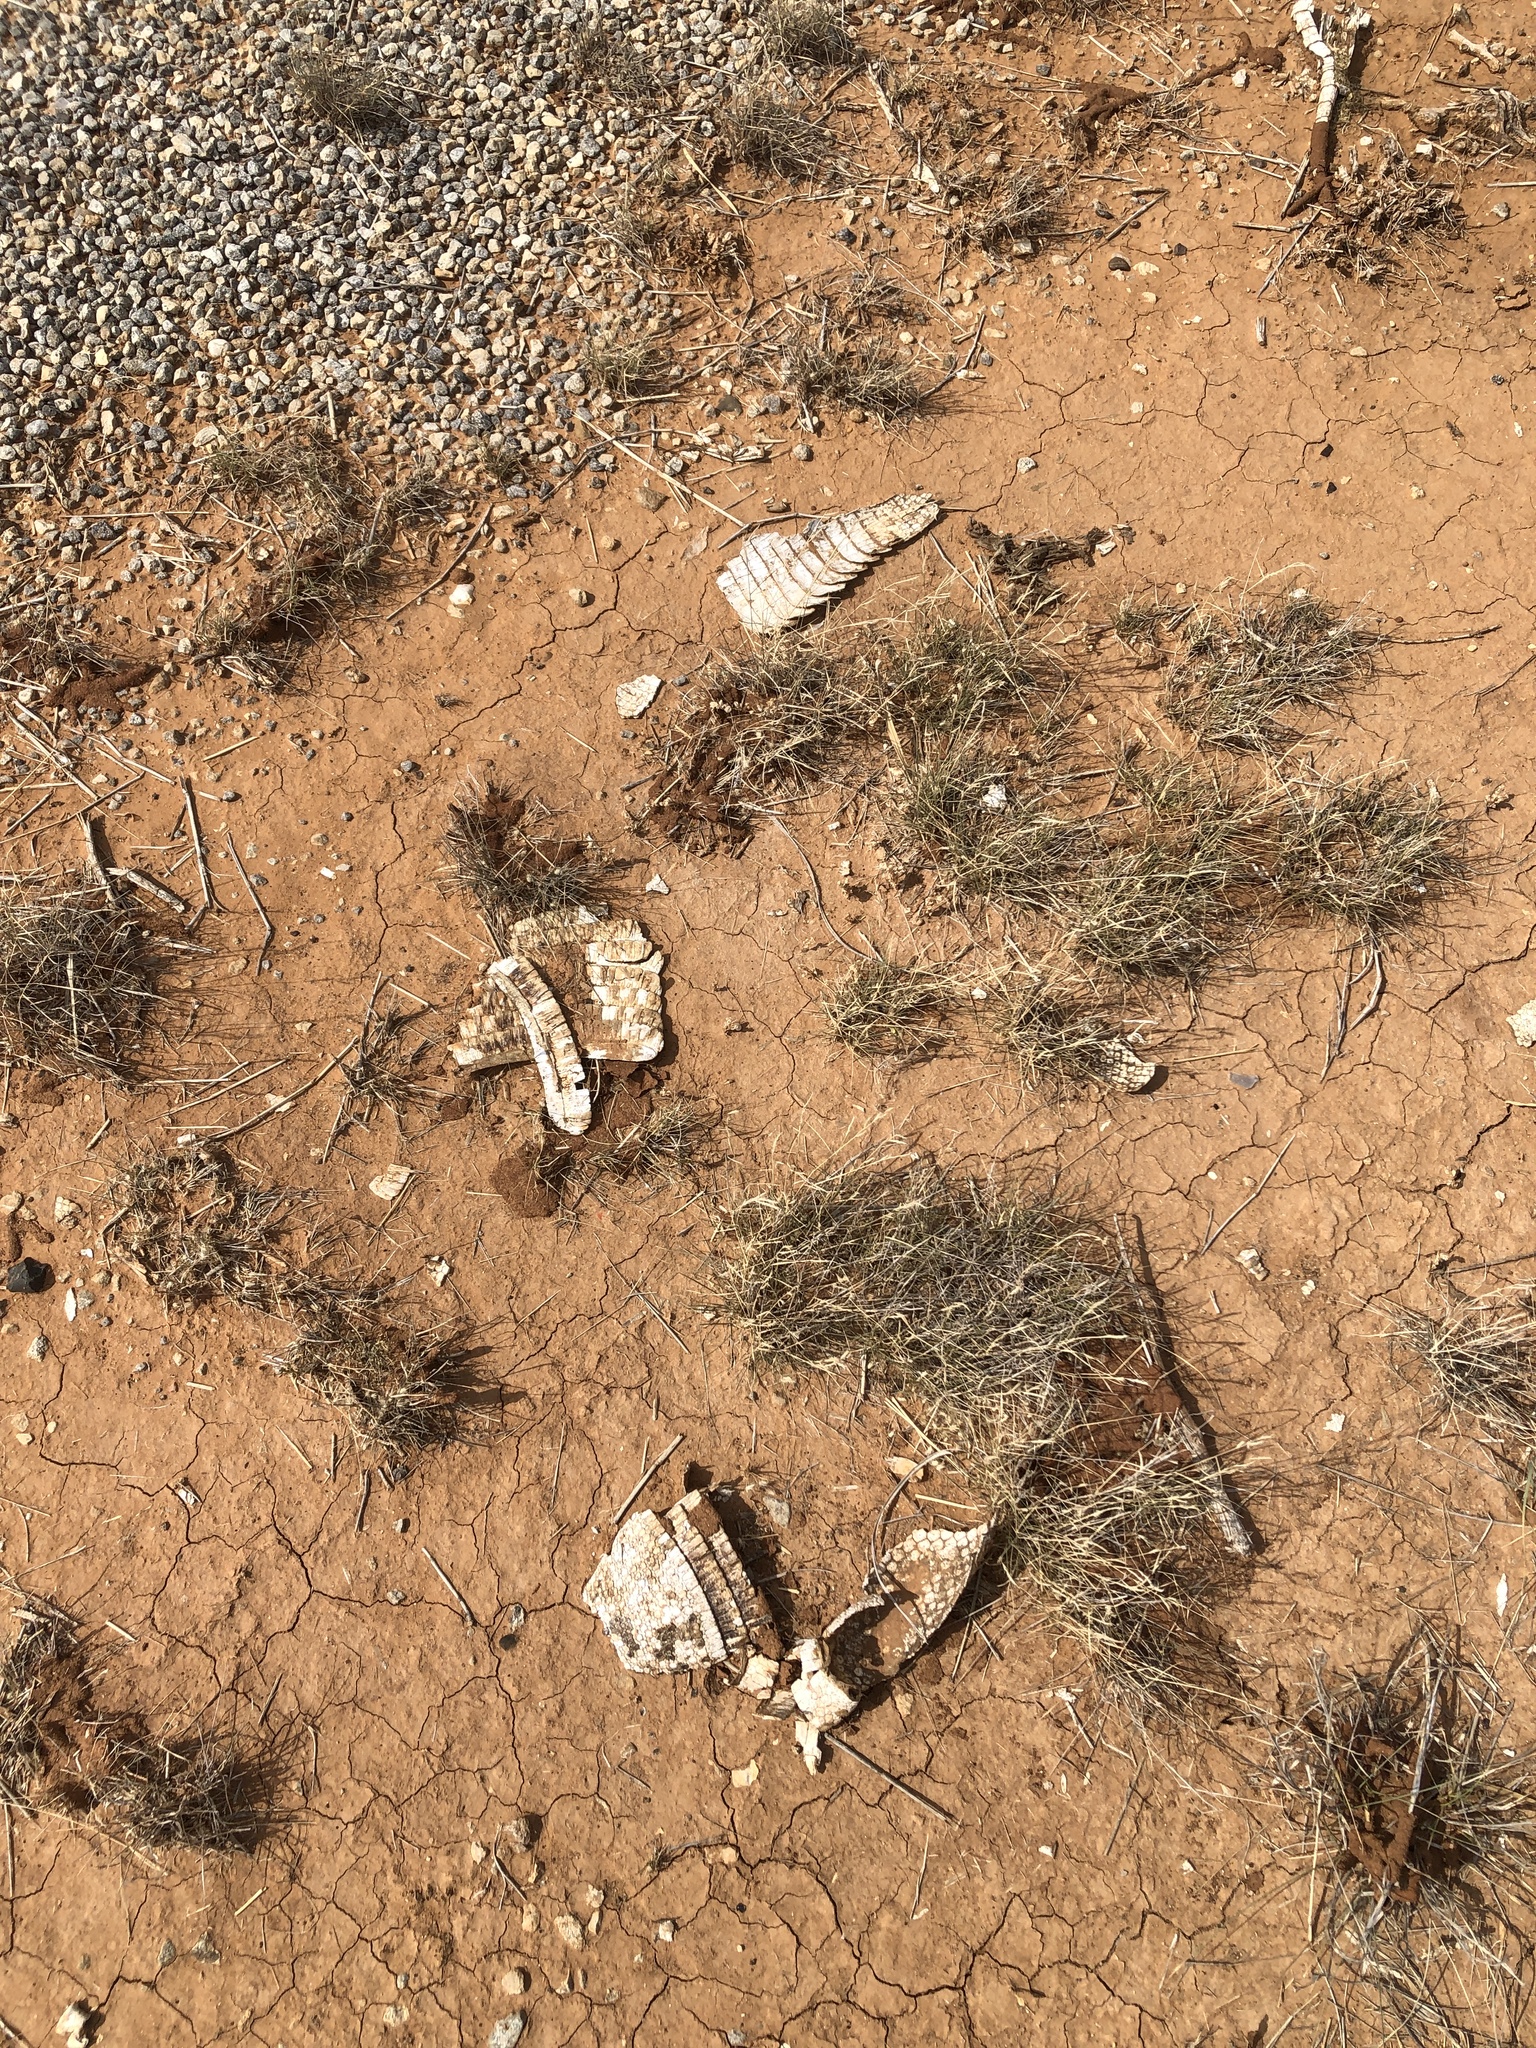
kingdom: Animalia
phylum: Chordata
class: Mammalia
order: Cingulata
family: Dasypodidae
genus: Dasypus
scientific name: Dasypus novemcinctus
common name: Nine-banded armadillo
